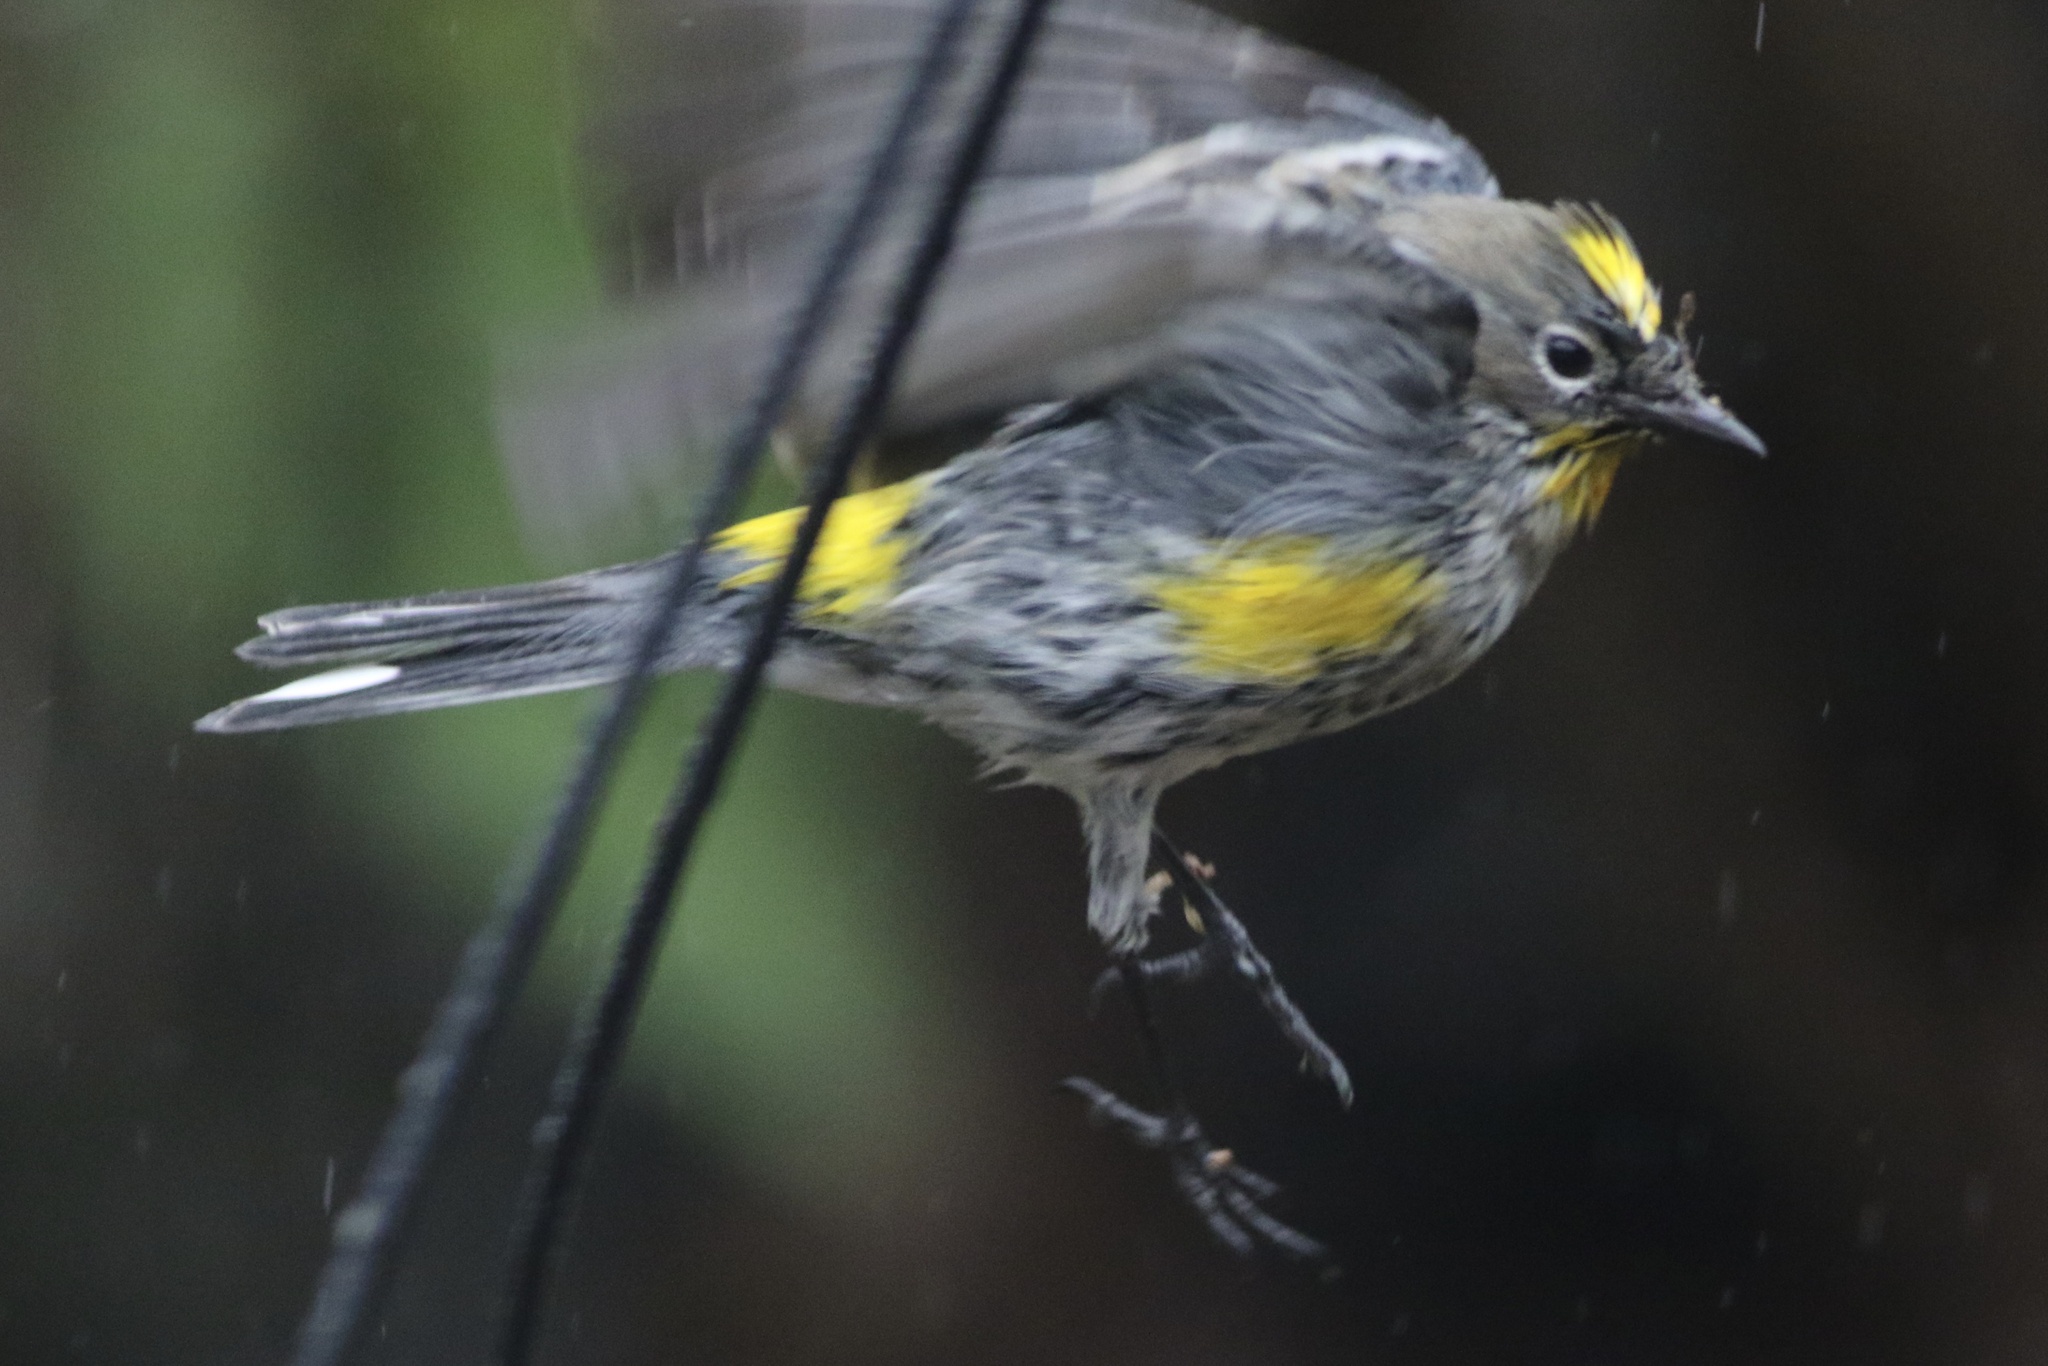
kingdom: Animalia
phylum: Chordata
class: Aves
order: Passeriformes
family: Parulidae
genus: Setophaga
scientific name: Setophaga coronata
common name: Myrtle warbler
